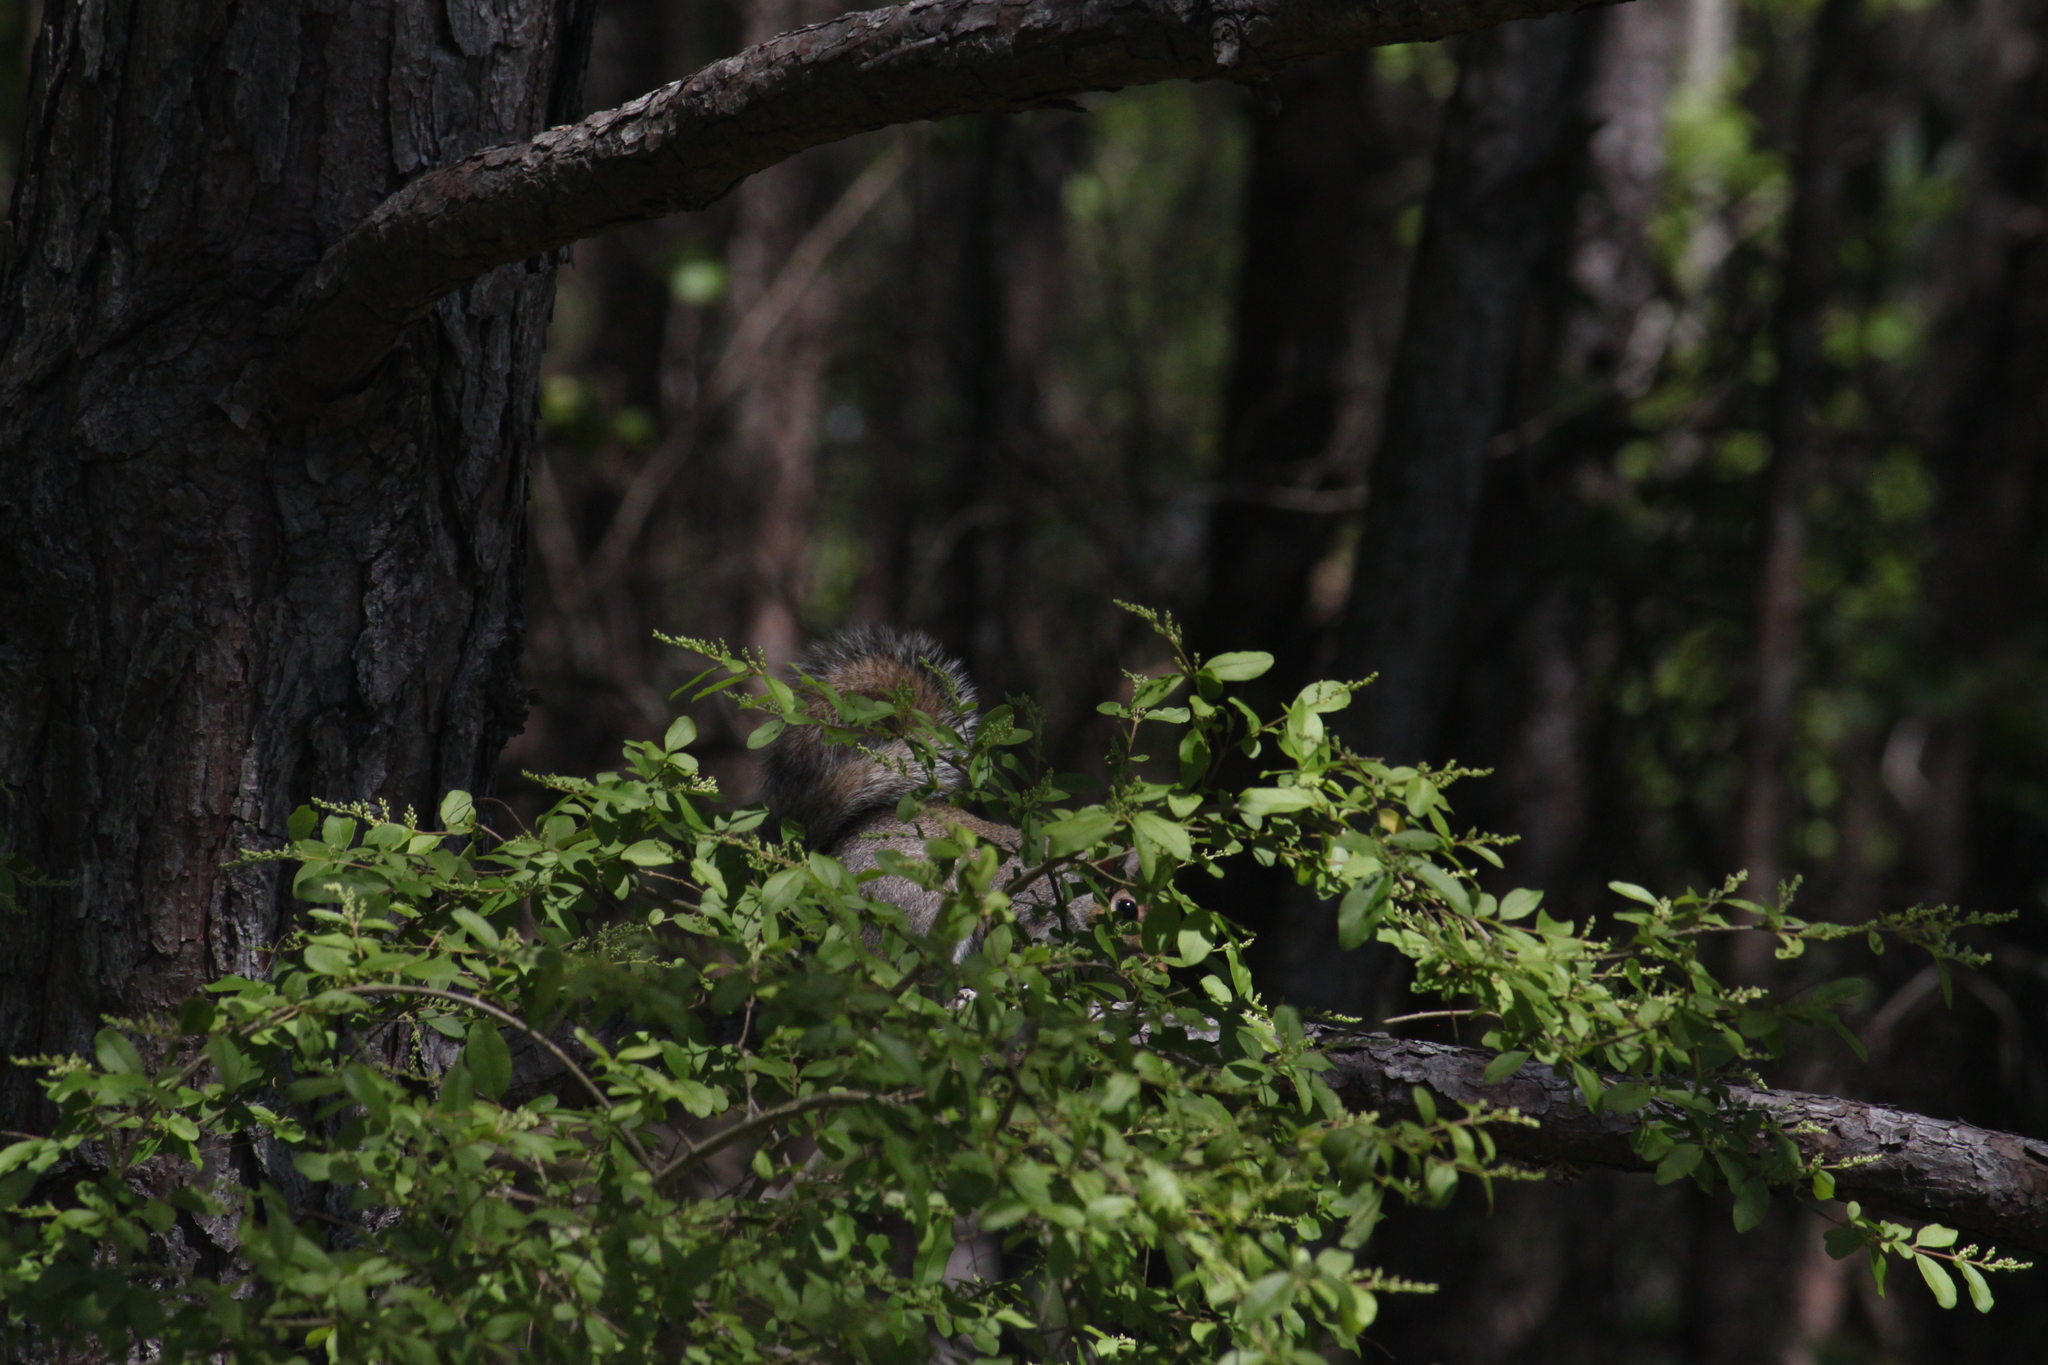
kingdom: Animalia
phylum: Chordata
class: Mammalia
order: Rodentia
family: Sciuridae
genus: Sciurus
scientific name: Sciurus carolinensis
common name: Eastern gray squirrel
